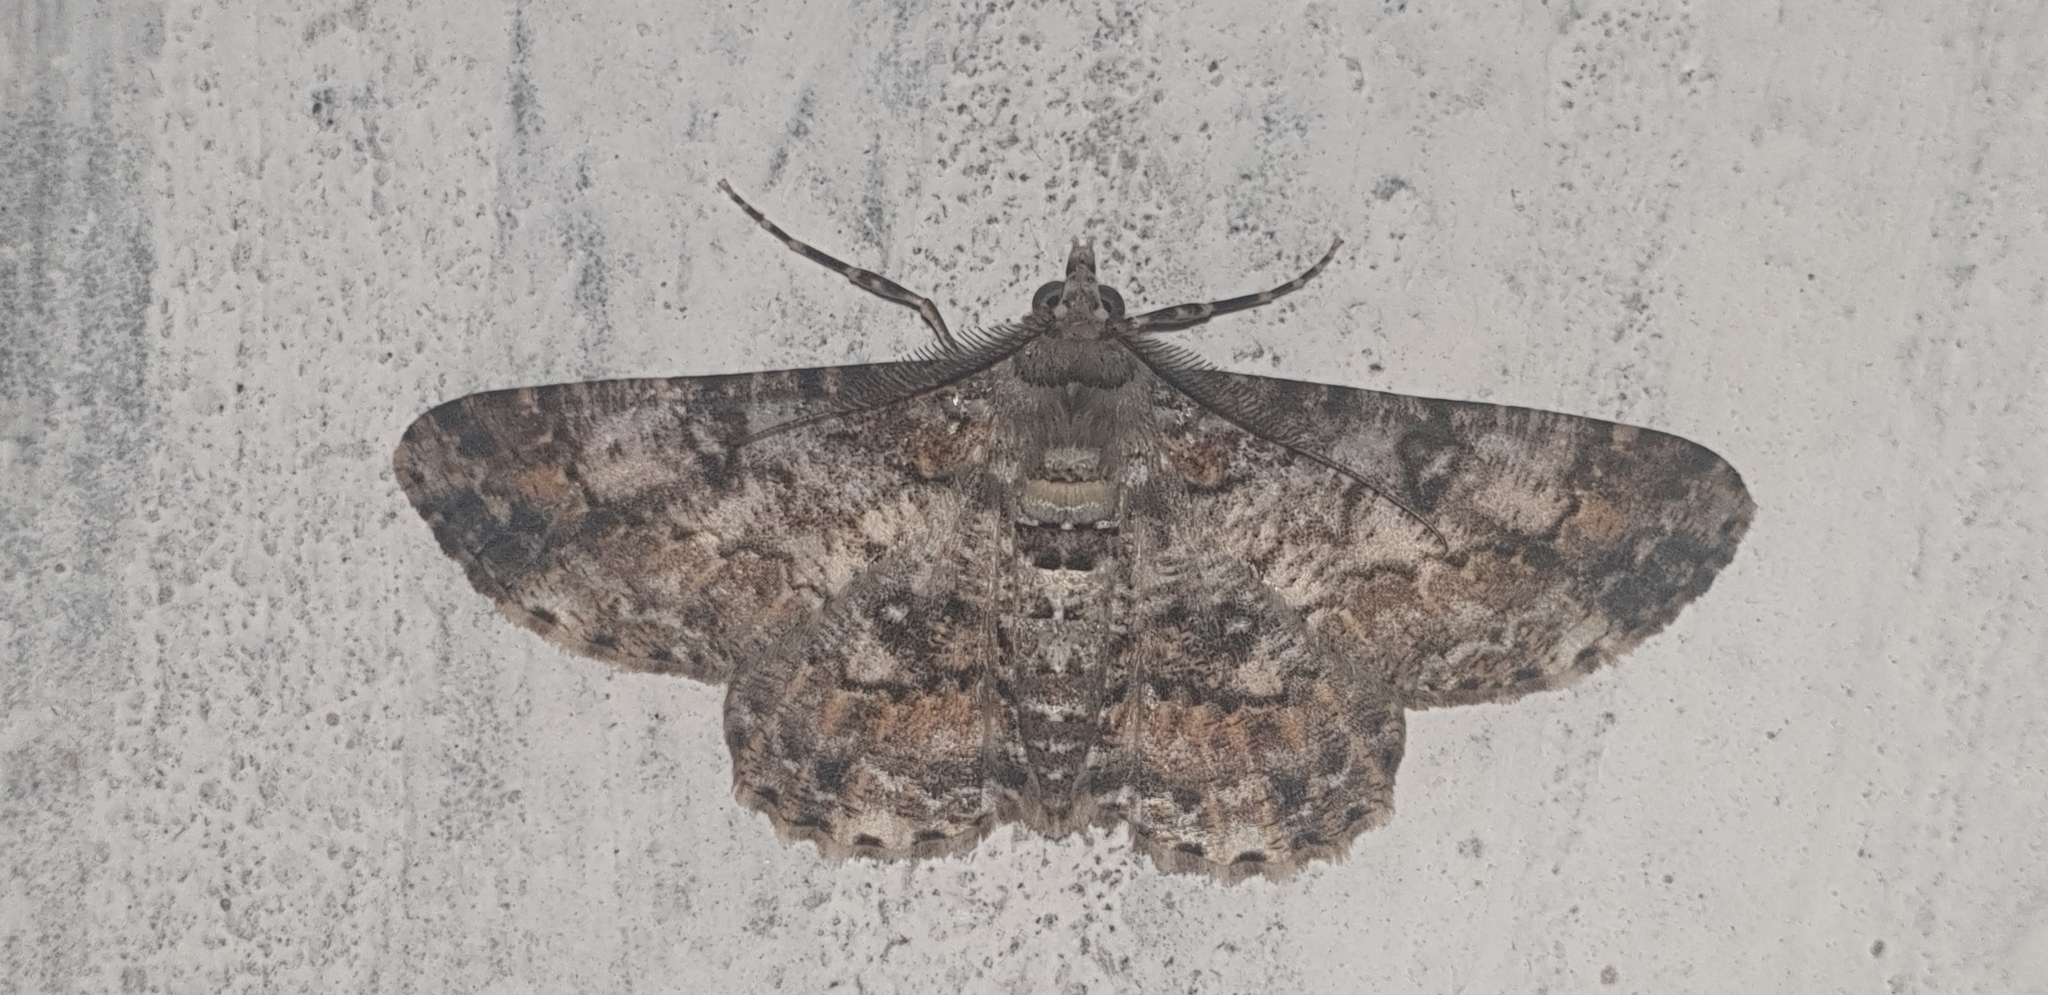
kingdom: Animalia
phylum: Arthropoda
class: Insecta
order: Lepidoptera
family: Geometridae
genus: Cleora
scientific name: Cleora alienaria
